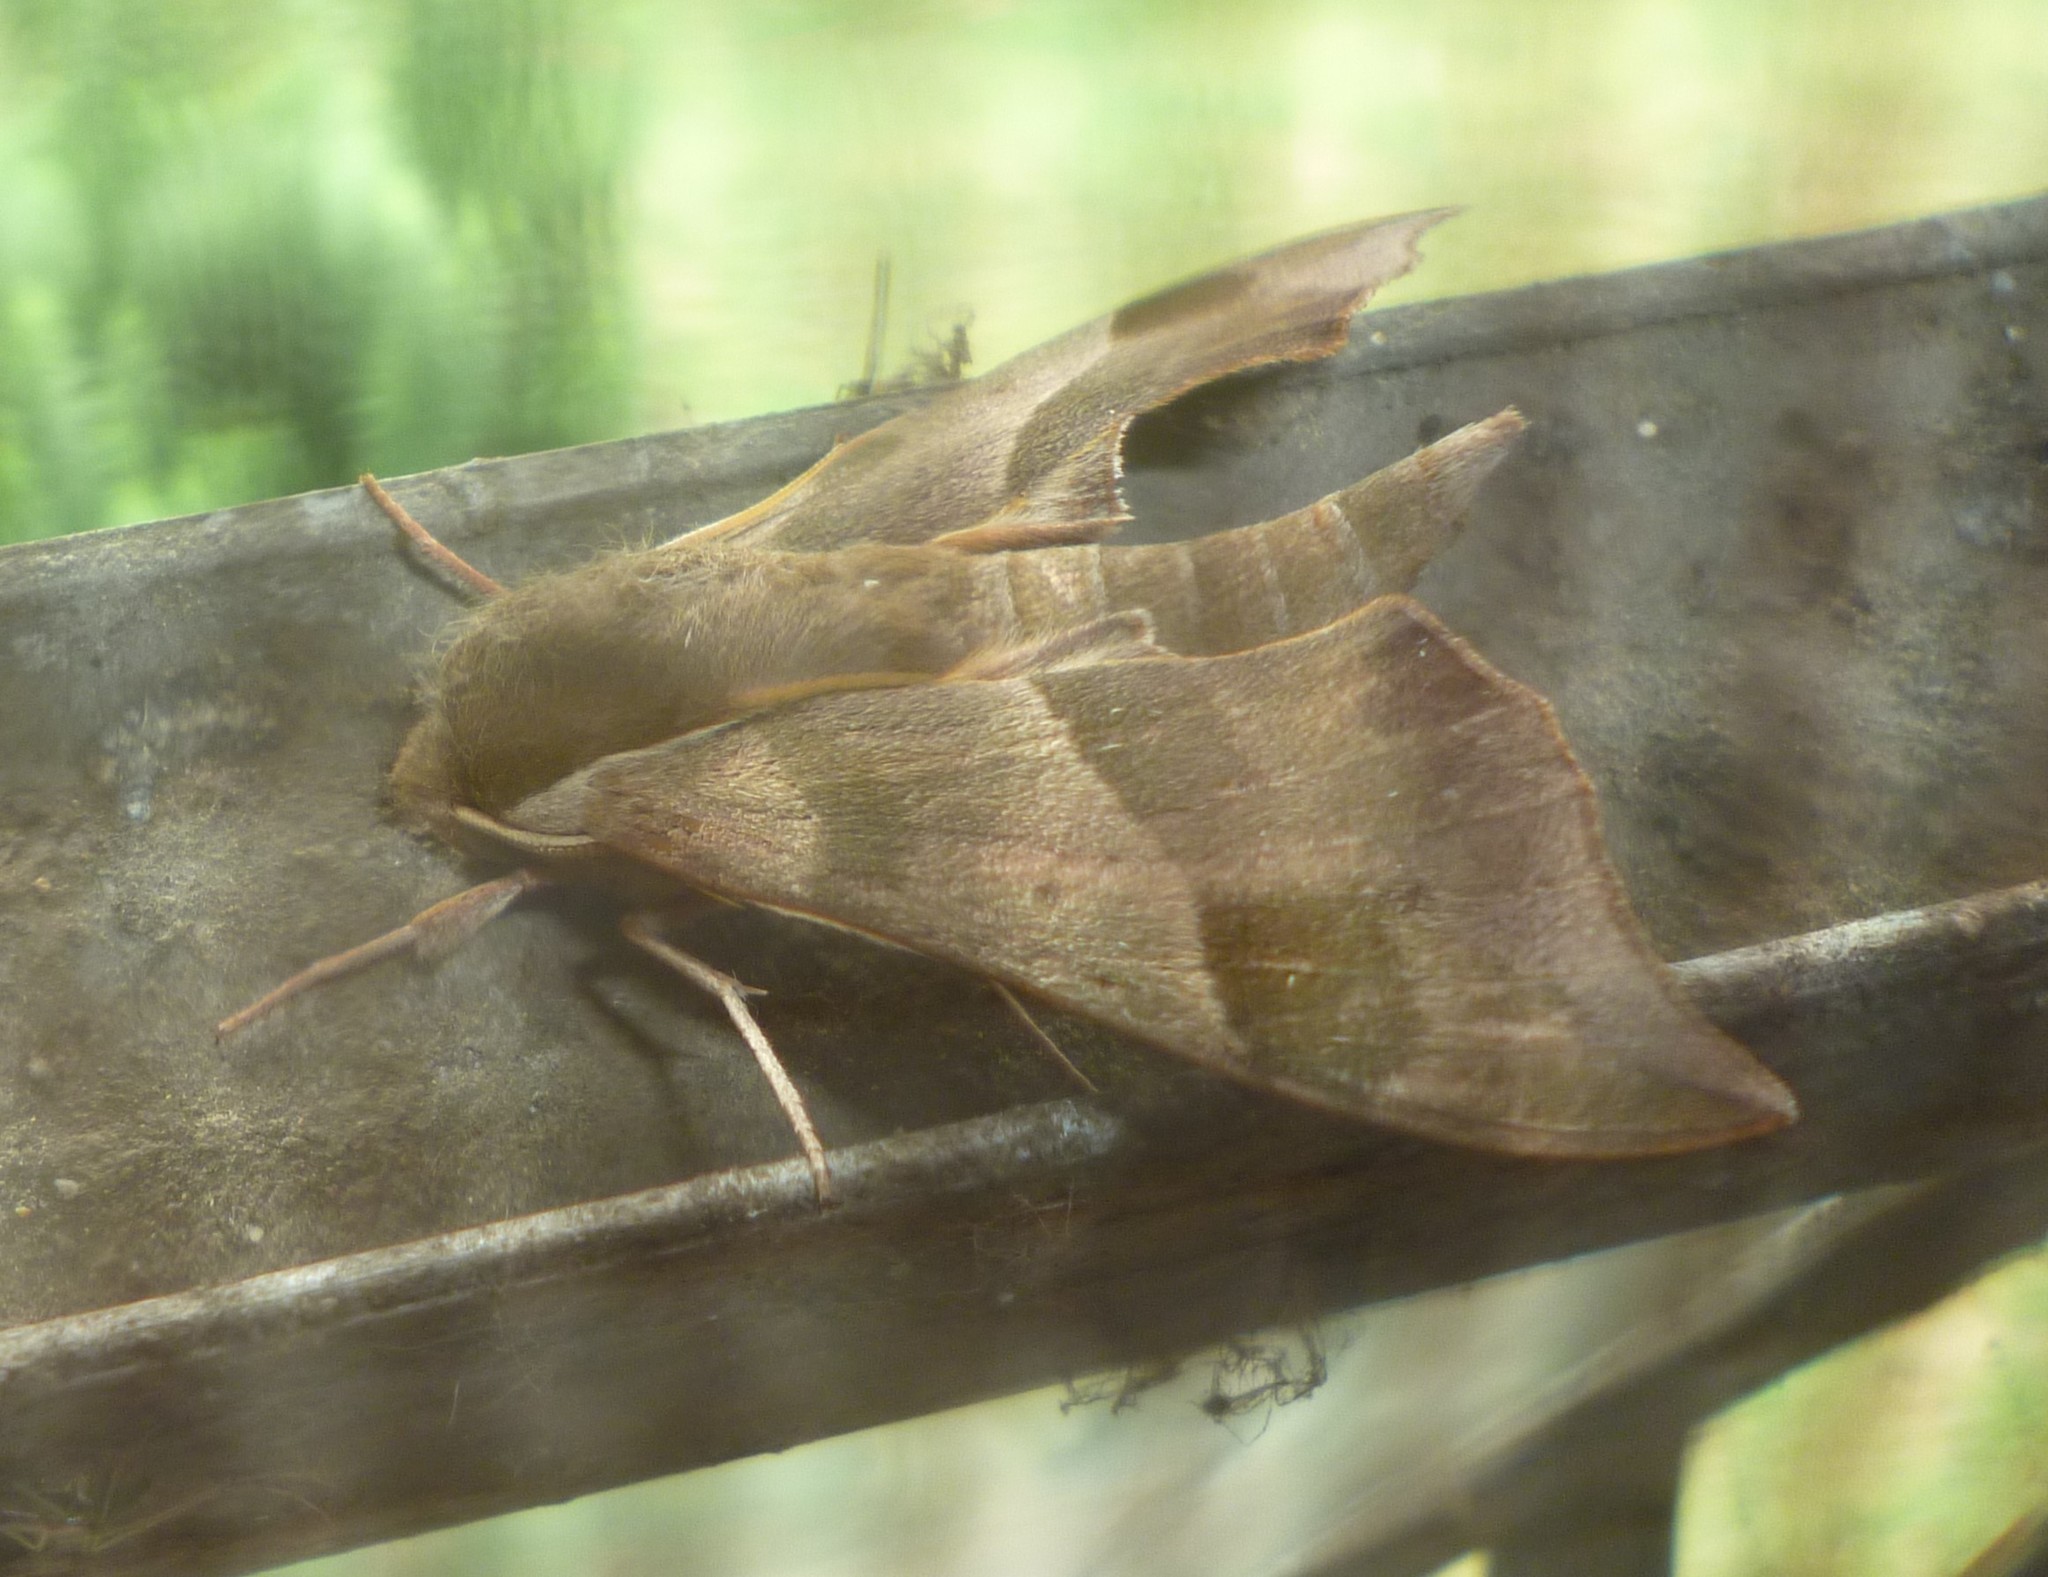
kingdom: Animalia
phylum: Arthropoda
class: Insecta
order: Lepidoptera
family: Sphingidae
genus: Darapsa
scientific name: Darapsa myron
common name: Hog sphinx
